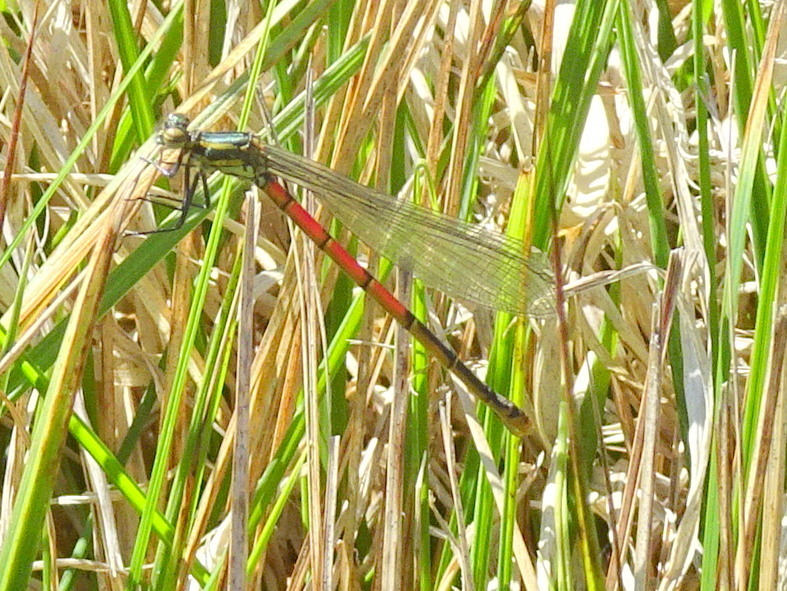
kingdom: Animalia
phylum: Arthropoda
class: Insecta
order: Odonata
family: Coenagrionidae
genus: Pyrrhosoma
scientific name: Pyrrhosoma nymphula
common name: Large red damsel
